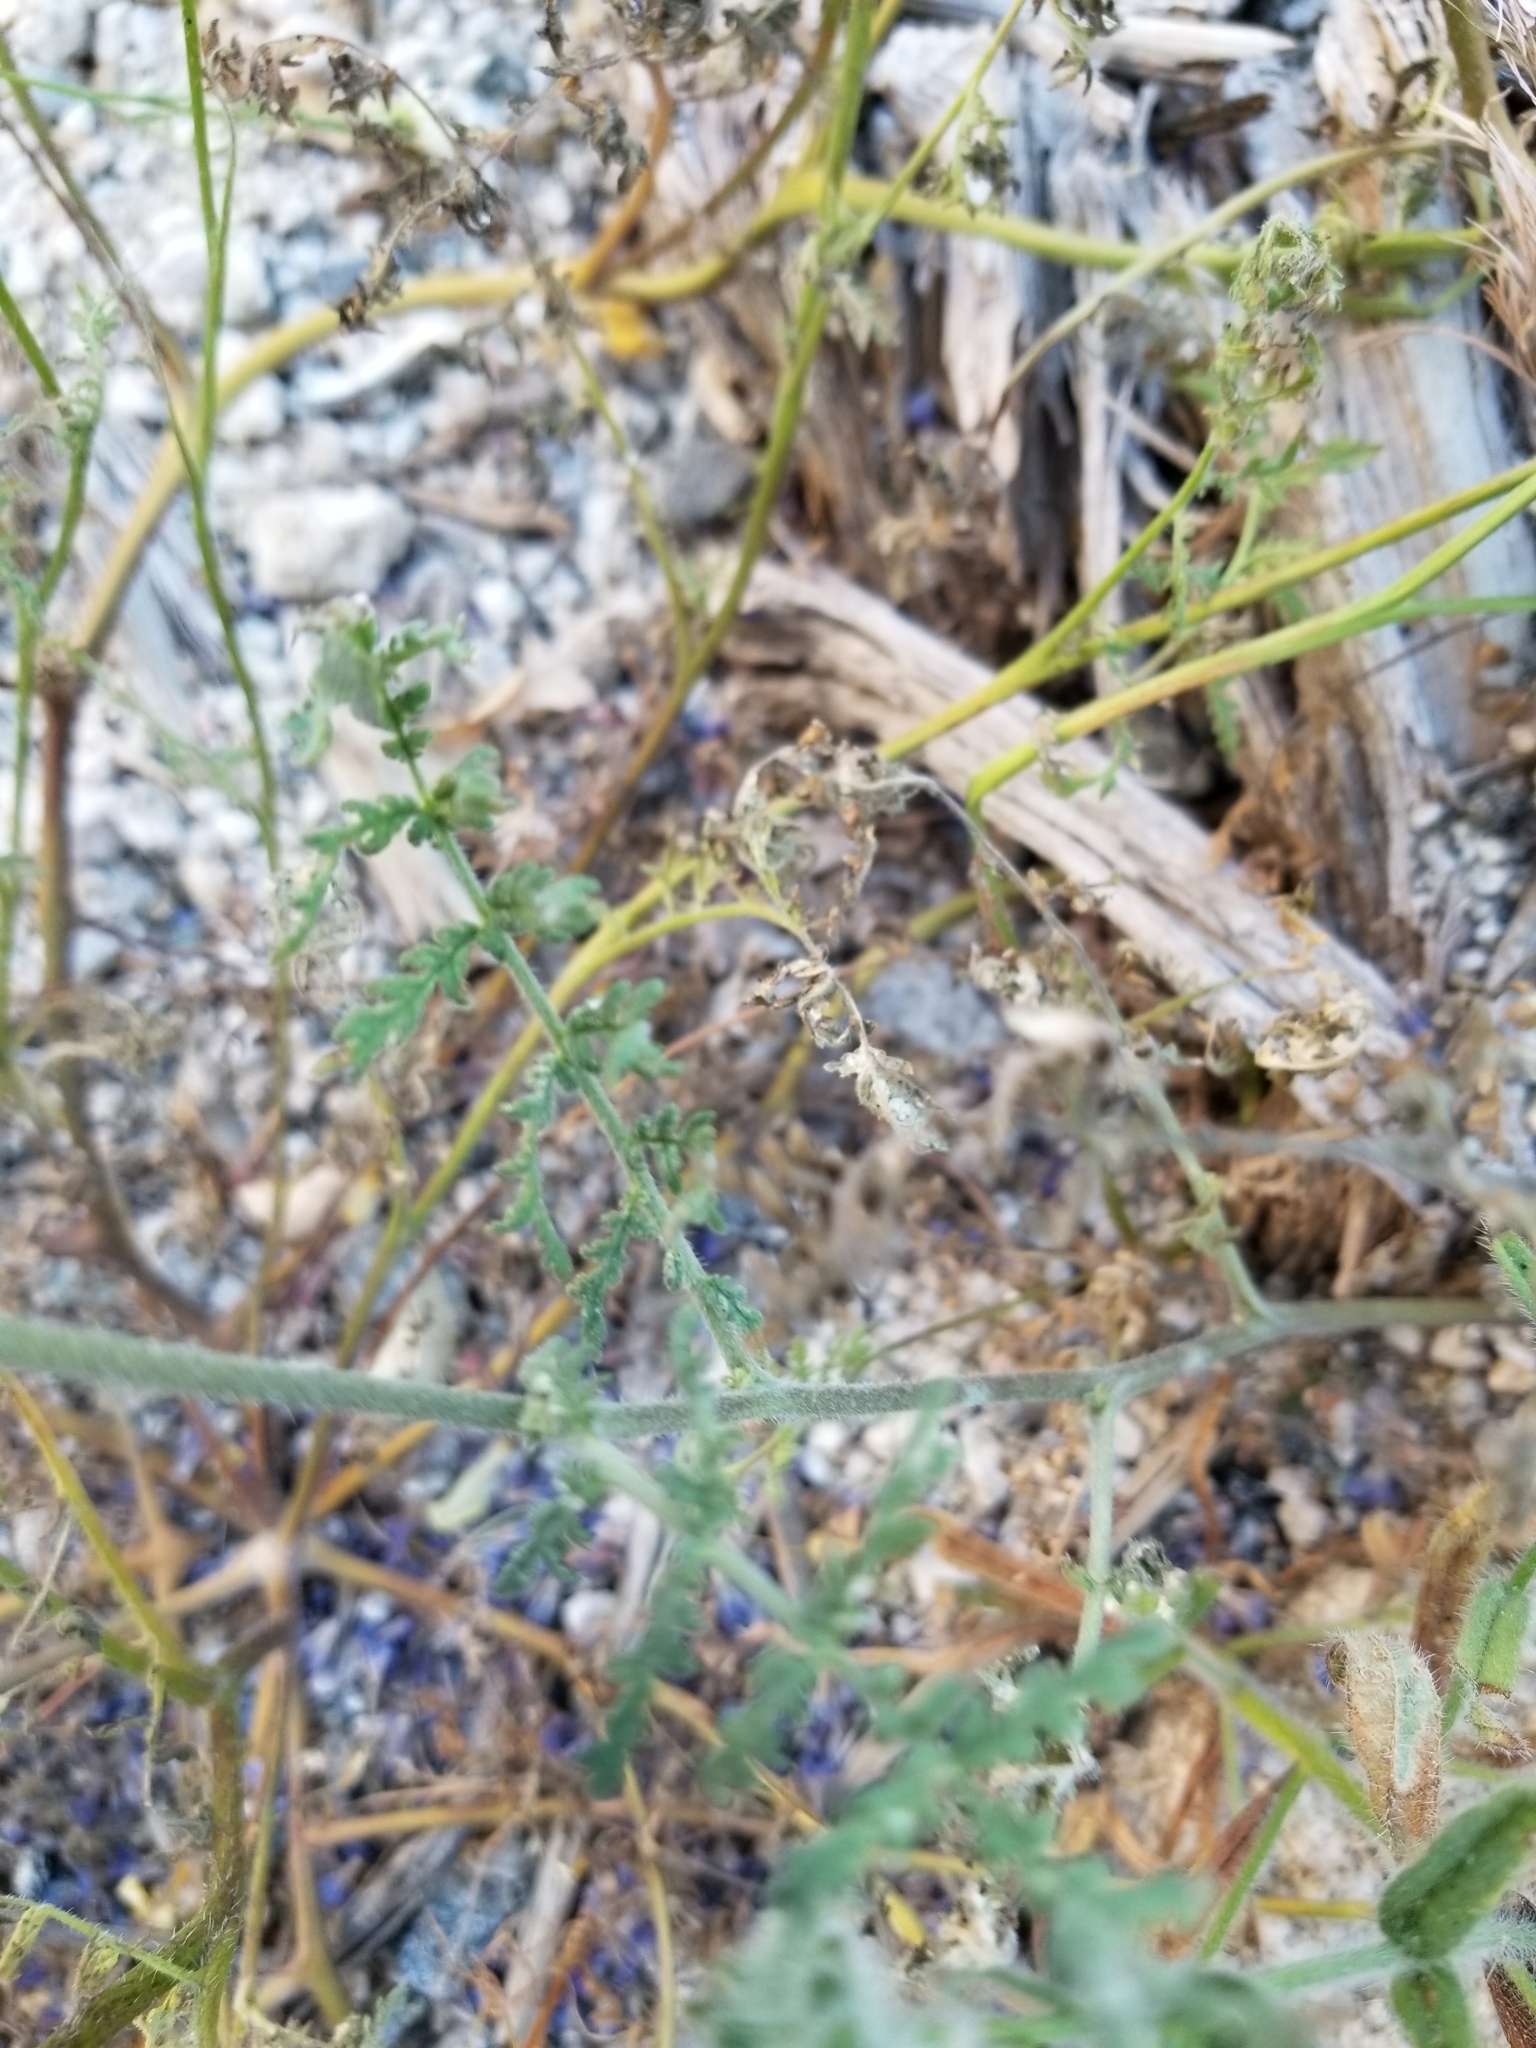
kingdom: Plantae
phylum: Tracheophyta
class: Magnoliopsida
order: Boraginales
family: Hydrophyllaceae
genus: Phacelia
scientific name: Phacelia distans
